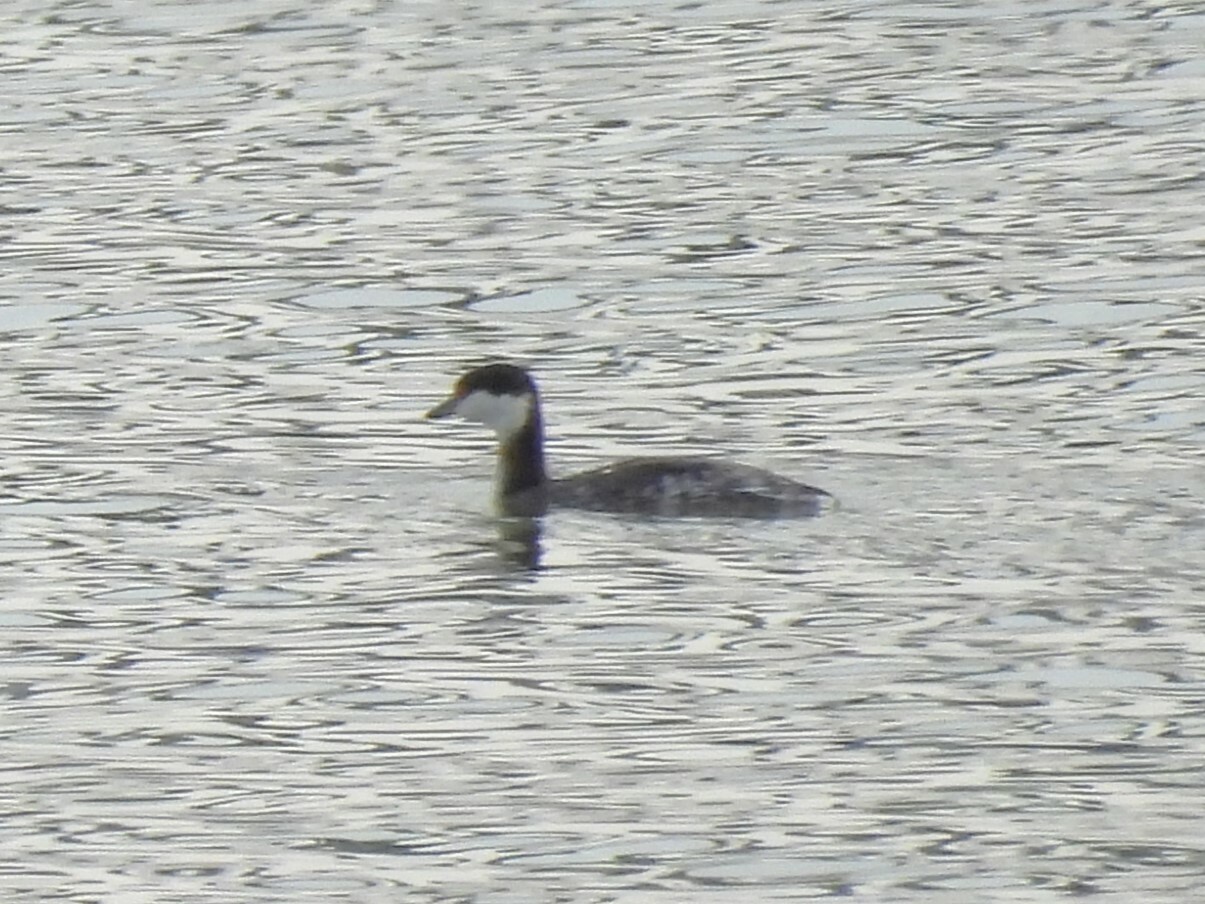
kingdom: Animalia
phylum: Chordata
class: Aves
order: Podicipediformes
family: Podicipedidae
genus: Podiceps
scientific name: Podiceps auritus
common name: Horned grebe
